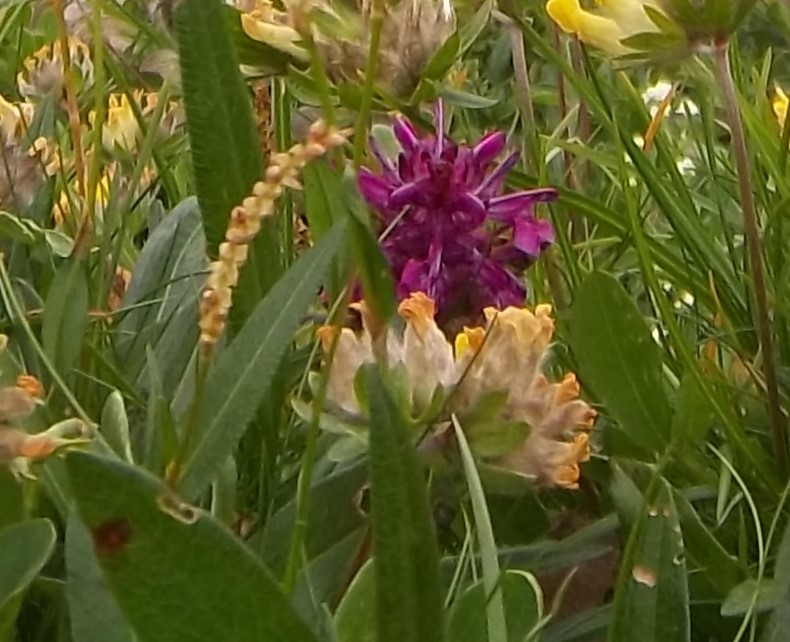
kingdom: Plantae
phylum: Tracheophyta
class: Magnoliopsida
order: Fabales
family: Fabaceae
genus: Anthyllis
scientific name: Anthyllis vulneraria
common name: Kidney vetch
